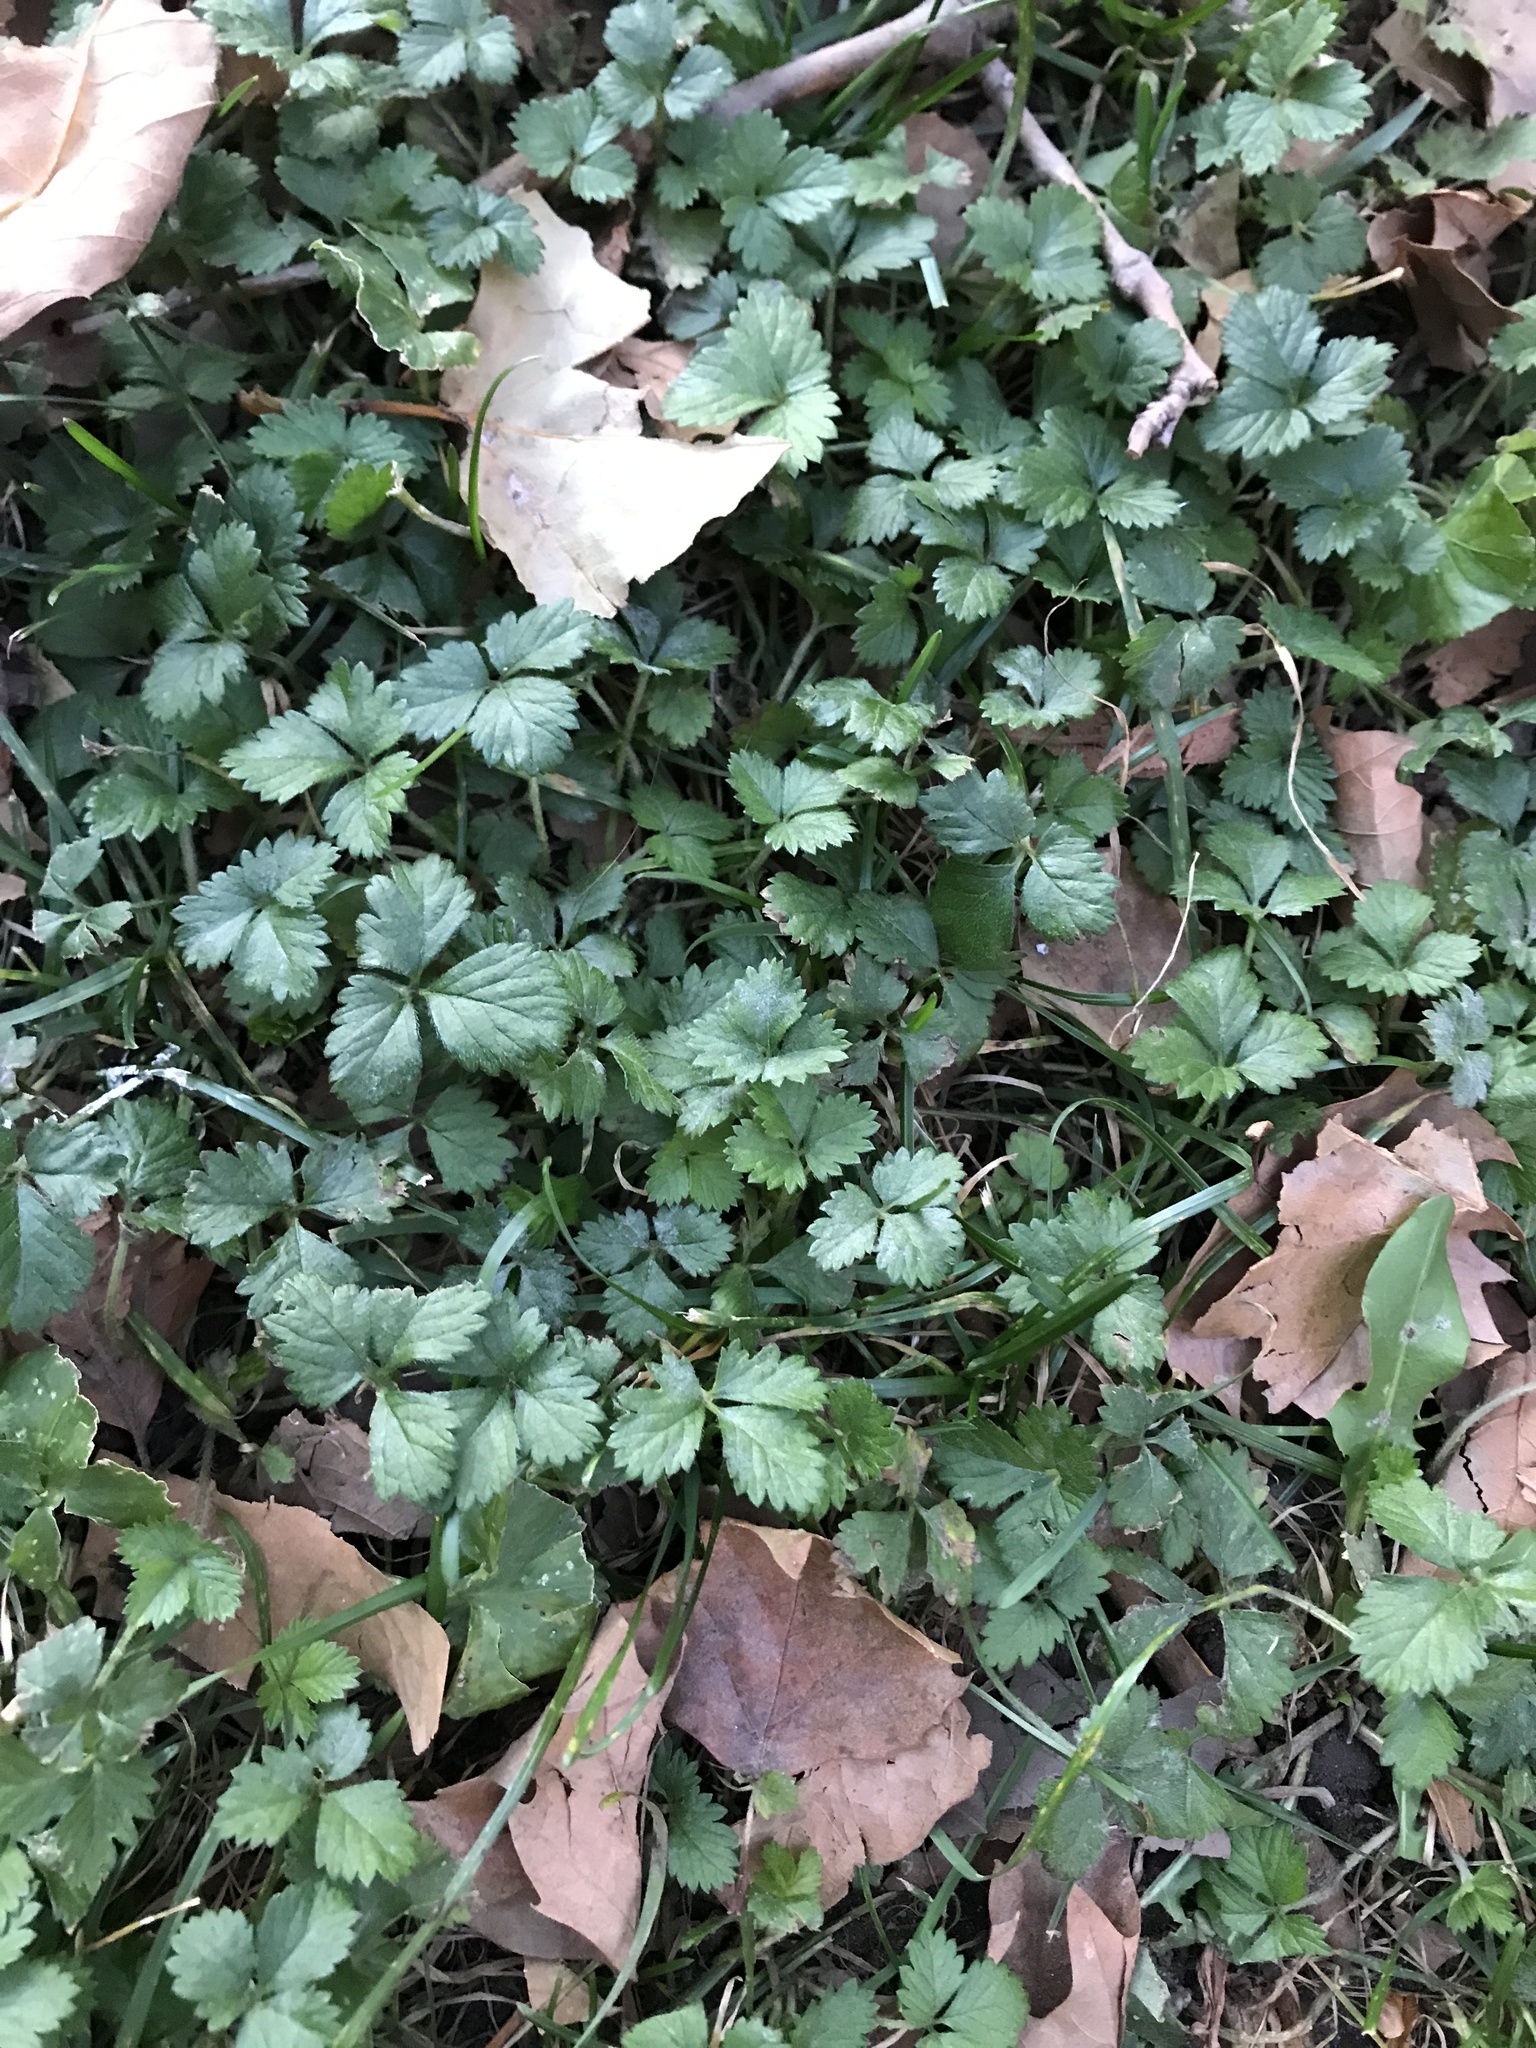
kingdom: Plantae
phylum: Tracheophyta
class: Magnoliopsida
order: Rosales
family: Rosaceae
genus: Potentilla
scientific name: Potentilla indica
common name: Yellow-flowered strawberry
